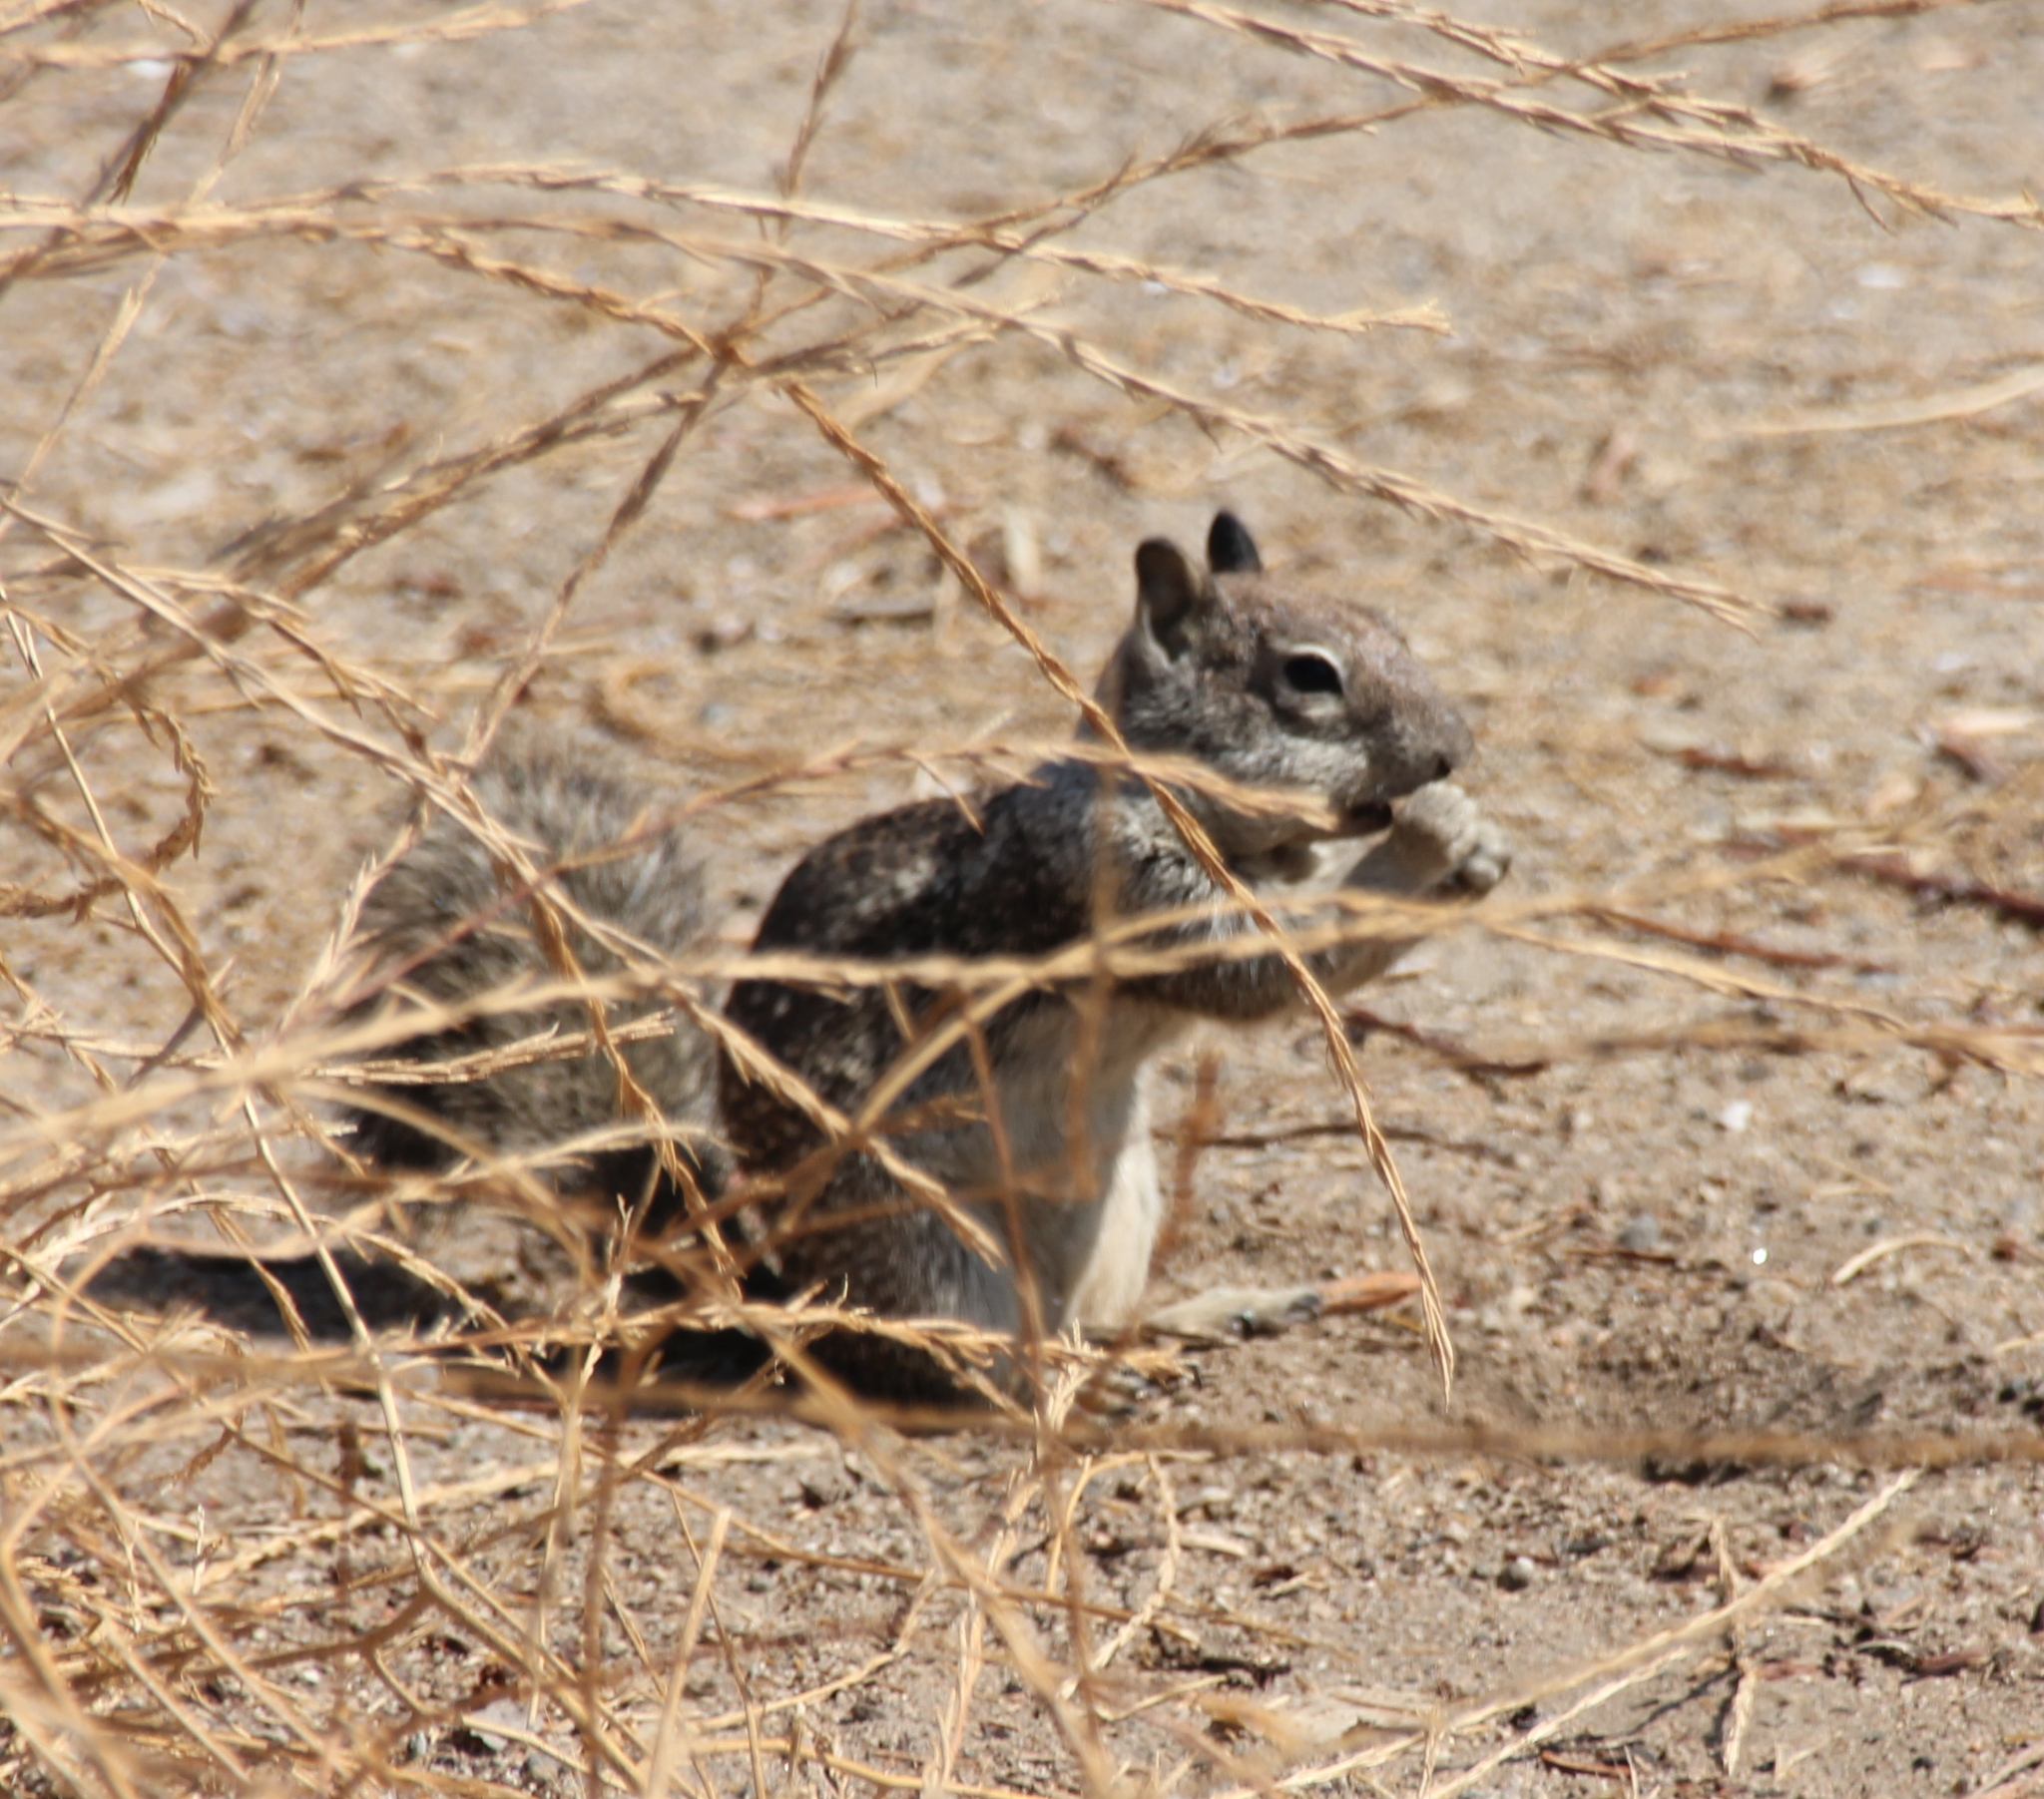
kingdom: Animalia
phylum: Chordata
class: Mammalia
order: Rodentia
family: Sciuridae
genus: Otospermophilus
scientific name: Otospermophilus beecheyi
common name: California ground squirrel
